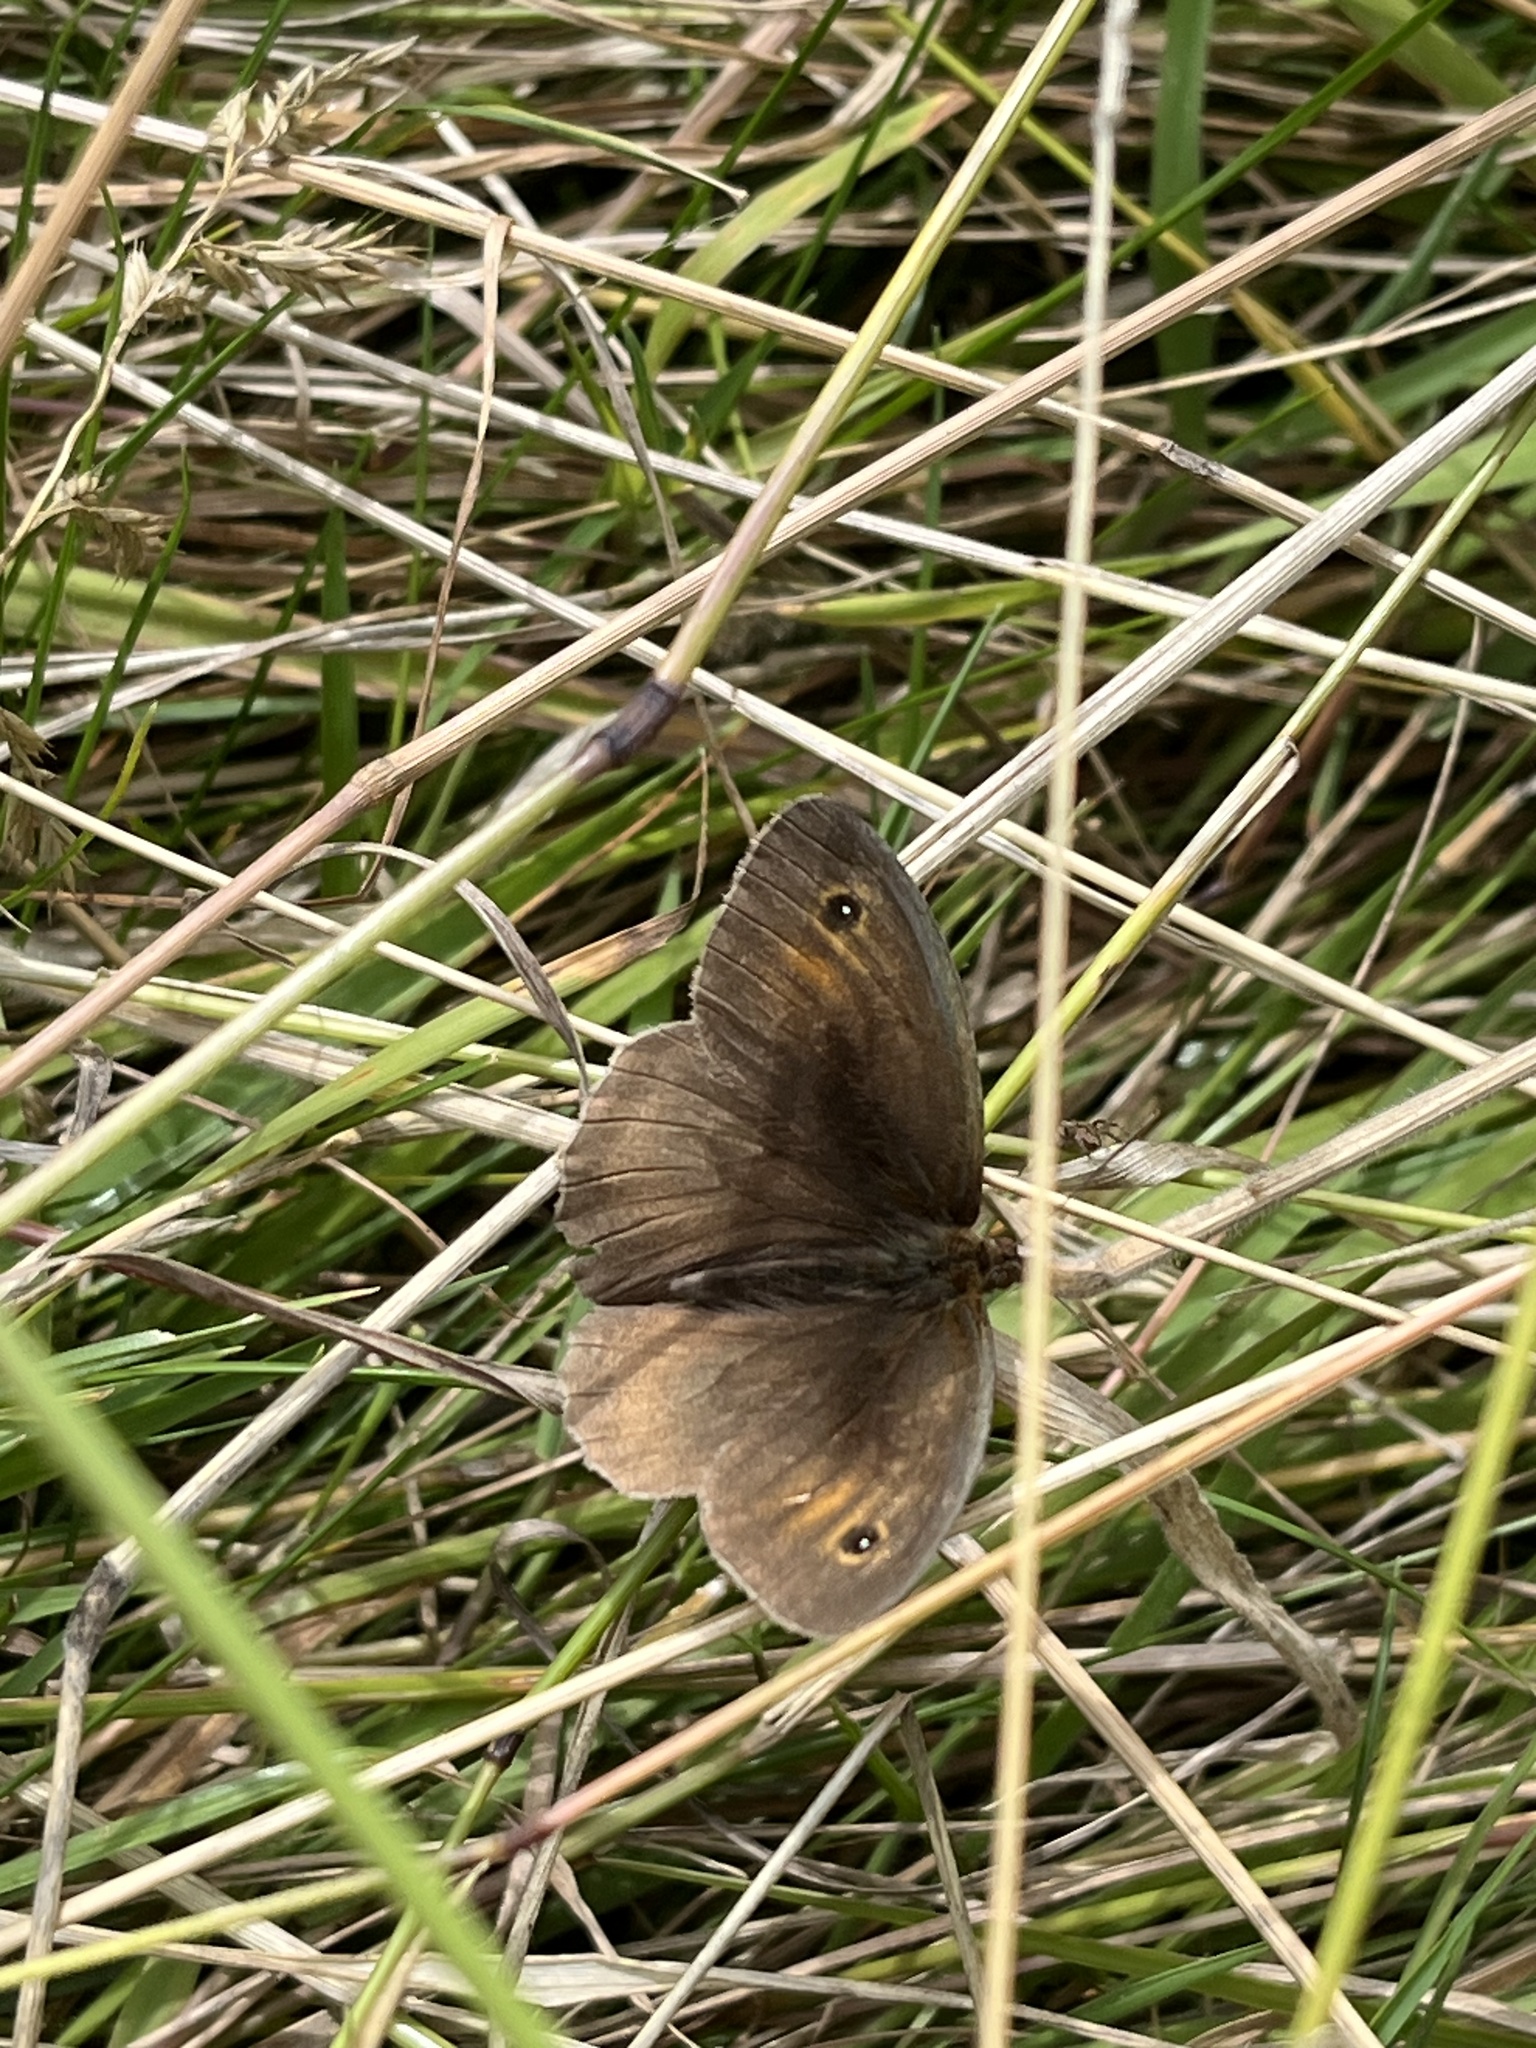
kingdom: Animalia
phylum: Arthropoda
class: Insecta
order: Lepidoptera
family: Nymphalidae
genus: Maniola
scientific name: Maniola jurtina
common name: Meadow brown
